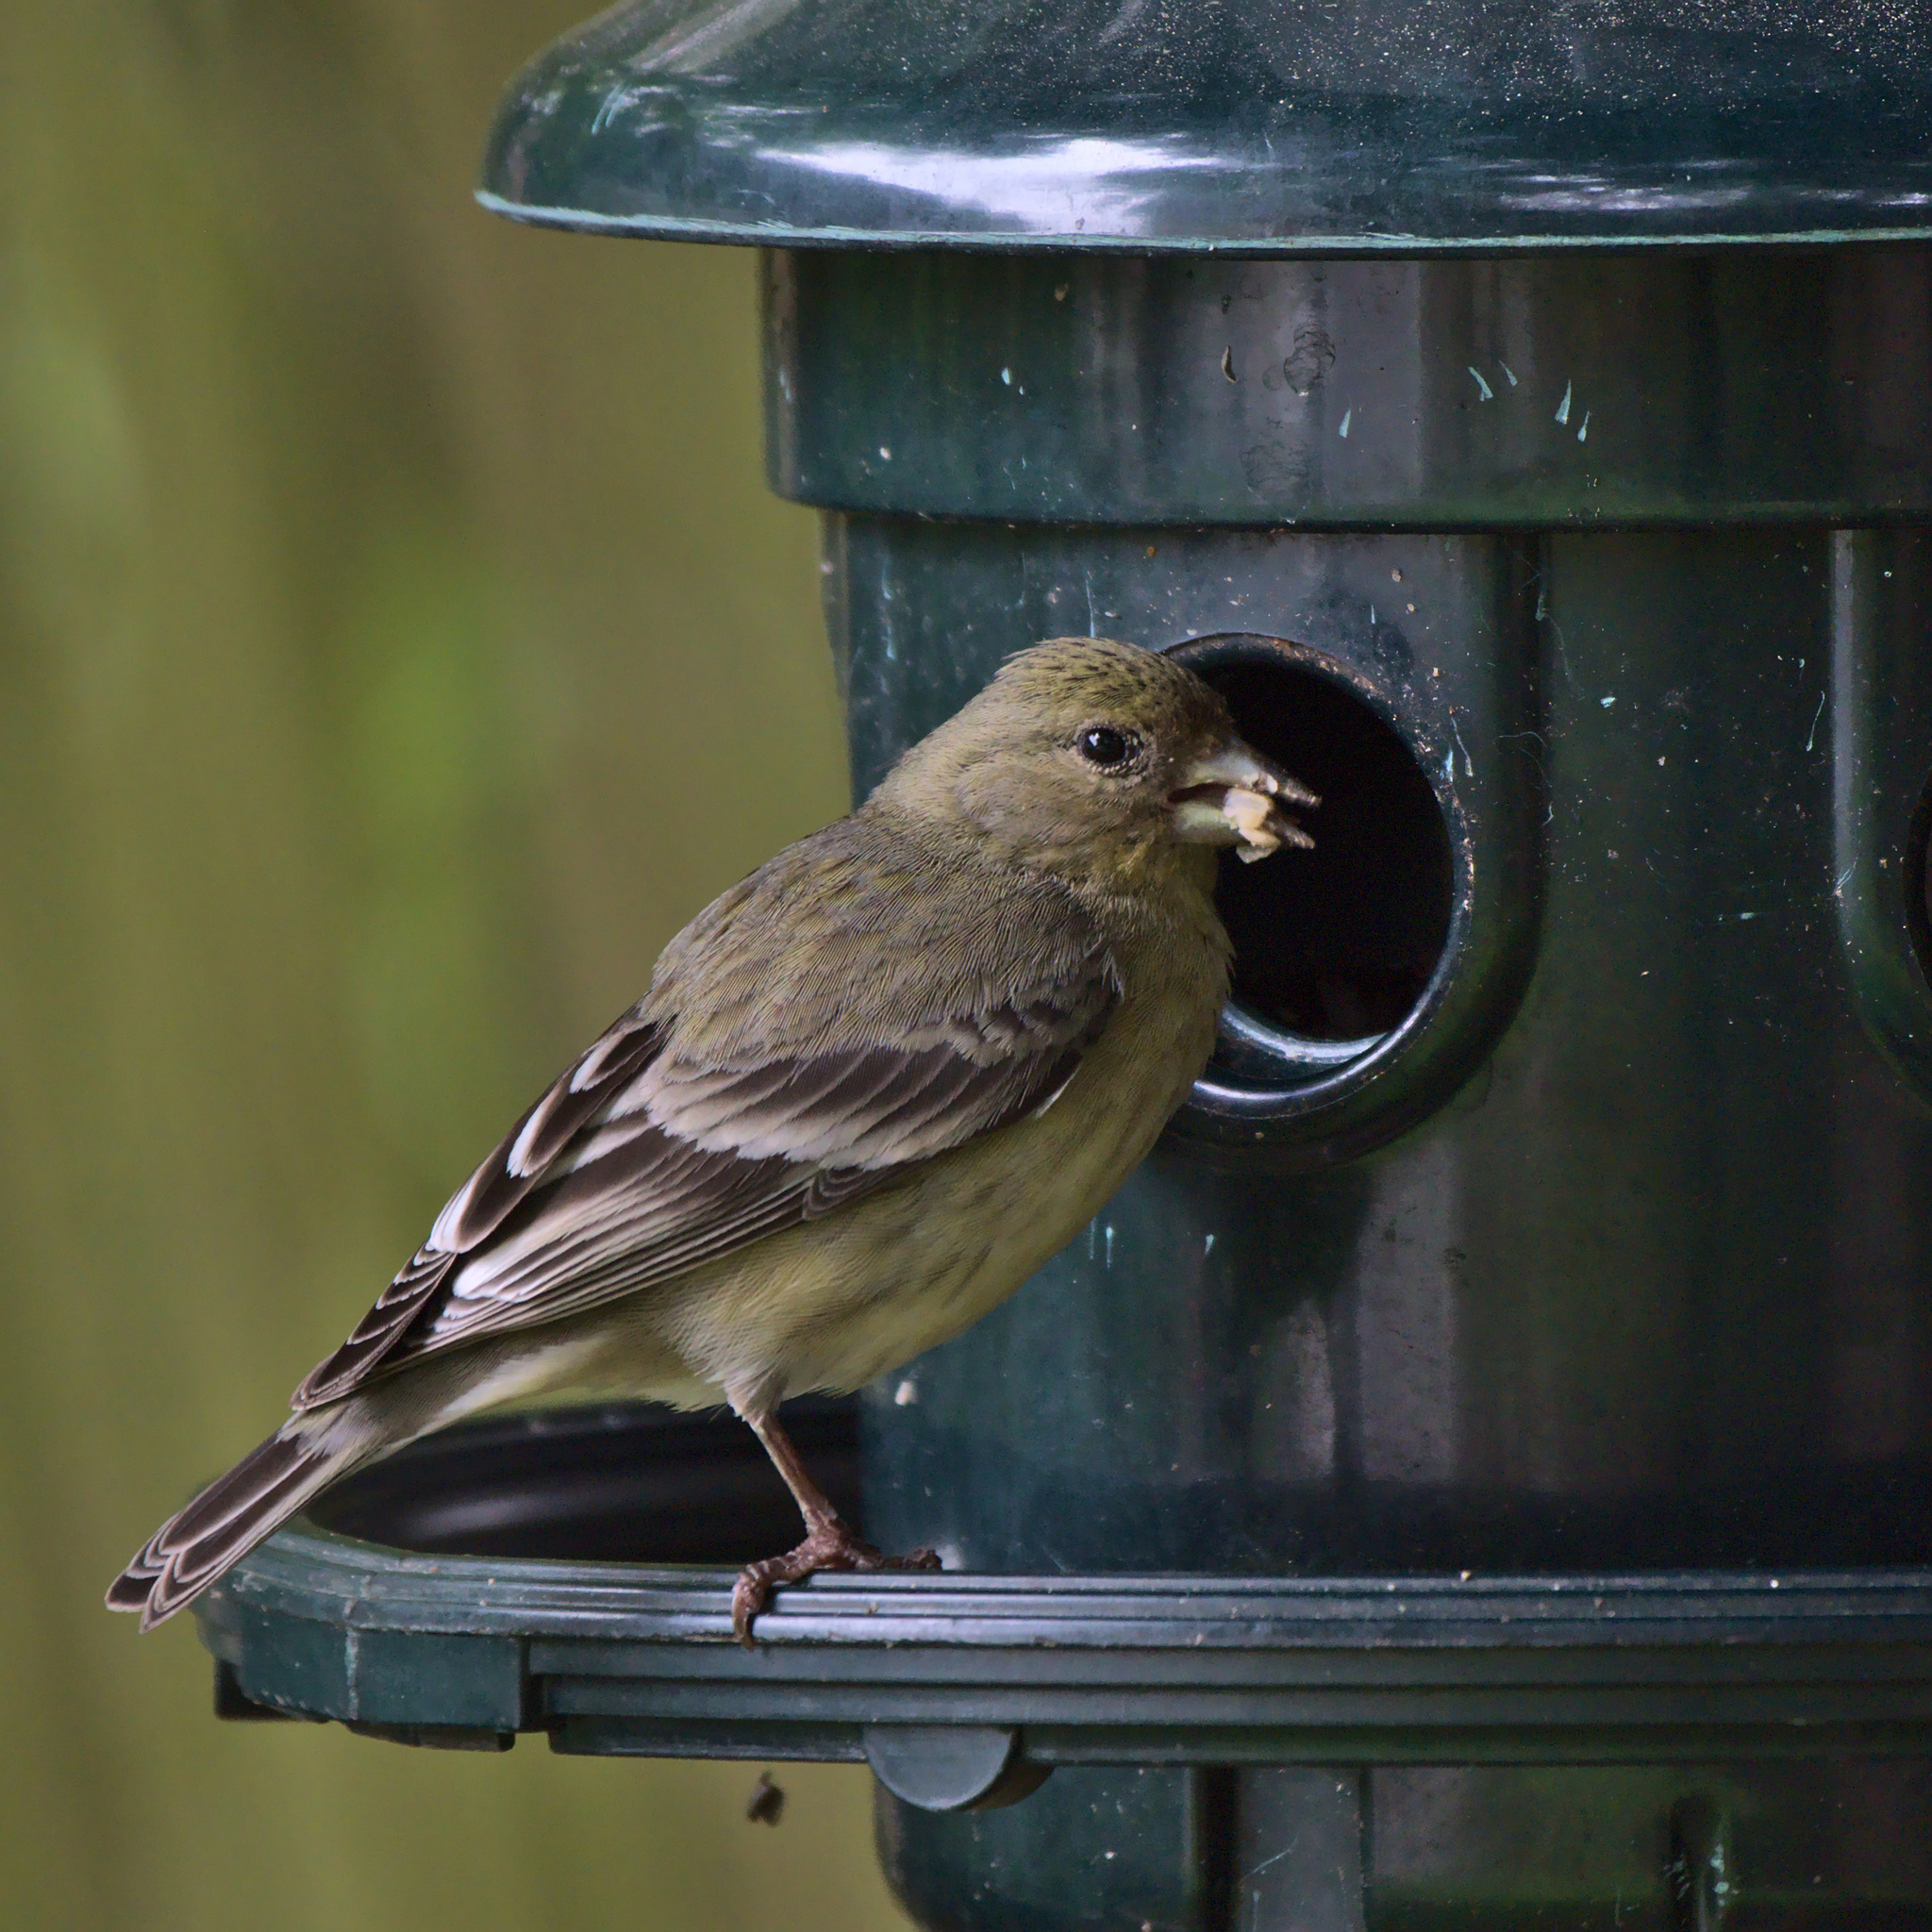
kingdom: Animalia
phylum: Chordata
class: Aves
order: Passeriformes
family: Fringillidae
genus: Spinus
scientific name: Spinus psaltria
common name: Lesser goldfinch
